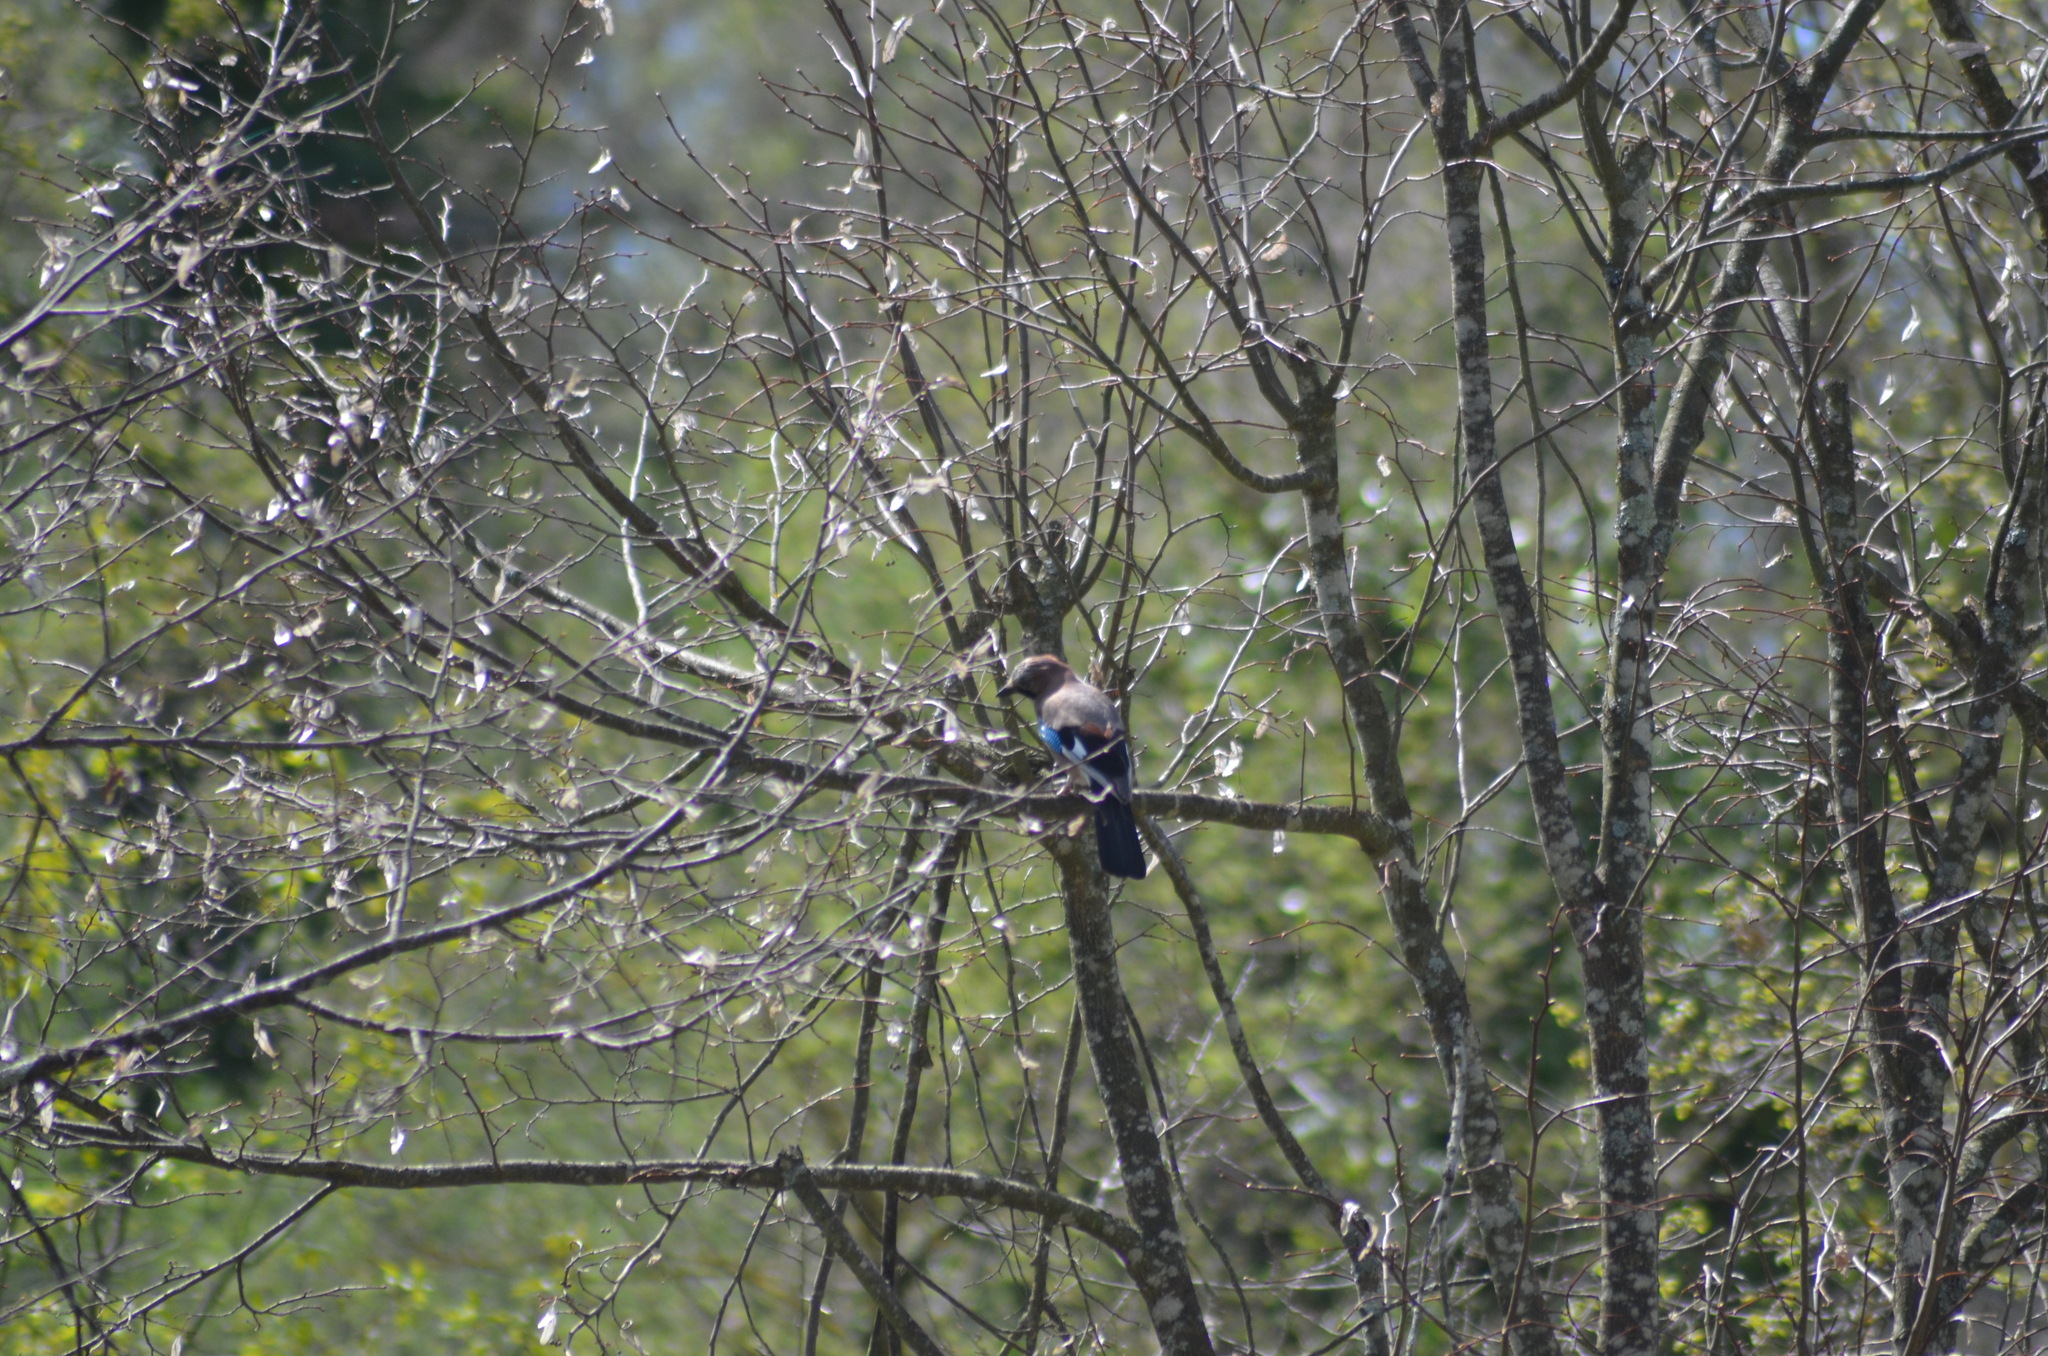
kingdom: Animalia
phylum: Chordata
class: Aves
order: Passeriformes
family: Corvidae
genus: Garrulus
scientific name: Garrulus glandarius
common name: Eurasian jay
